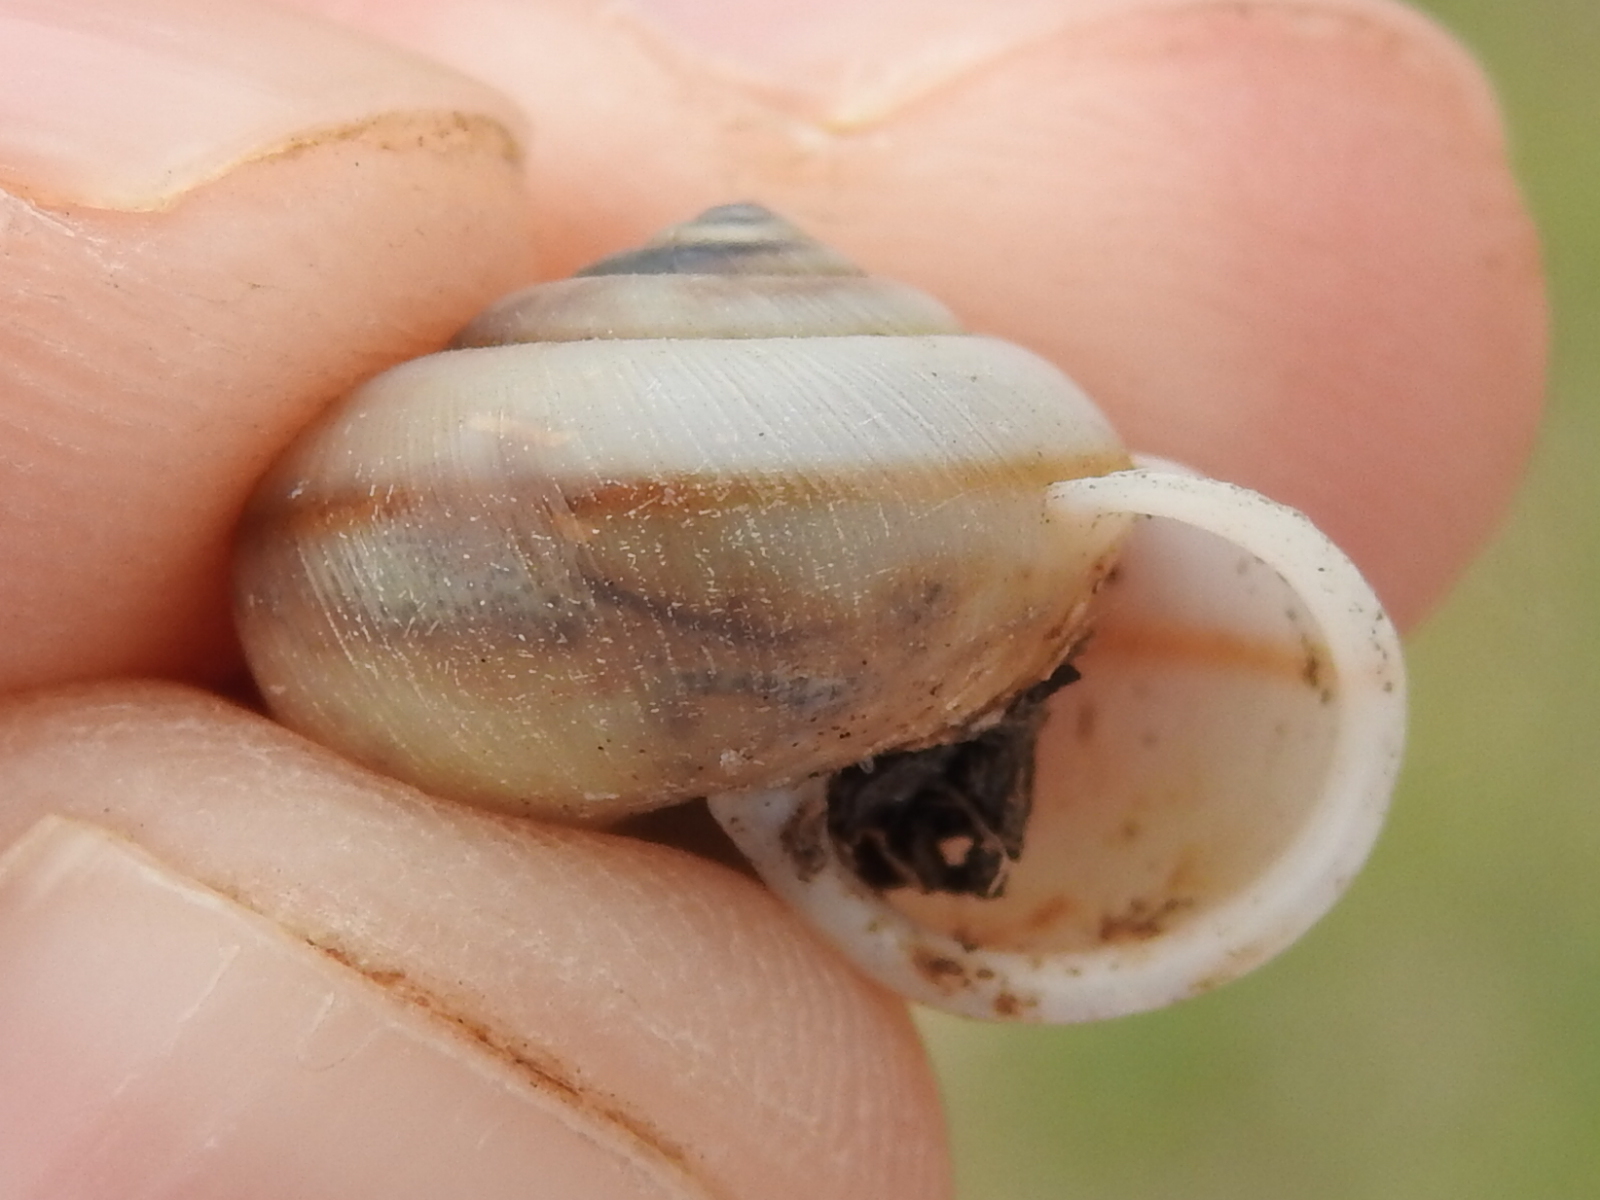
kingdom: Animalia
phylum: Mollusca
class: Gastropoda
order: Stylommatophora
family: Camaenidae
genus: Bradybaena
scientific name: Bradybaena similaris
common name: Asian trampsnail
